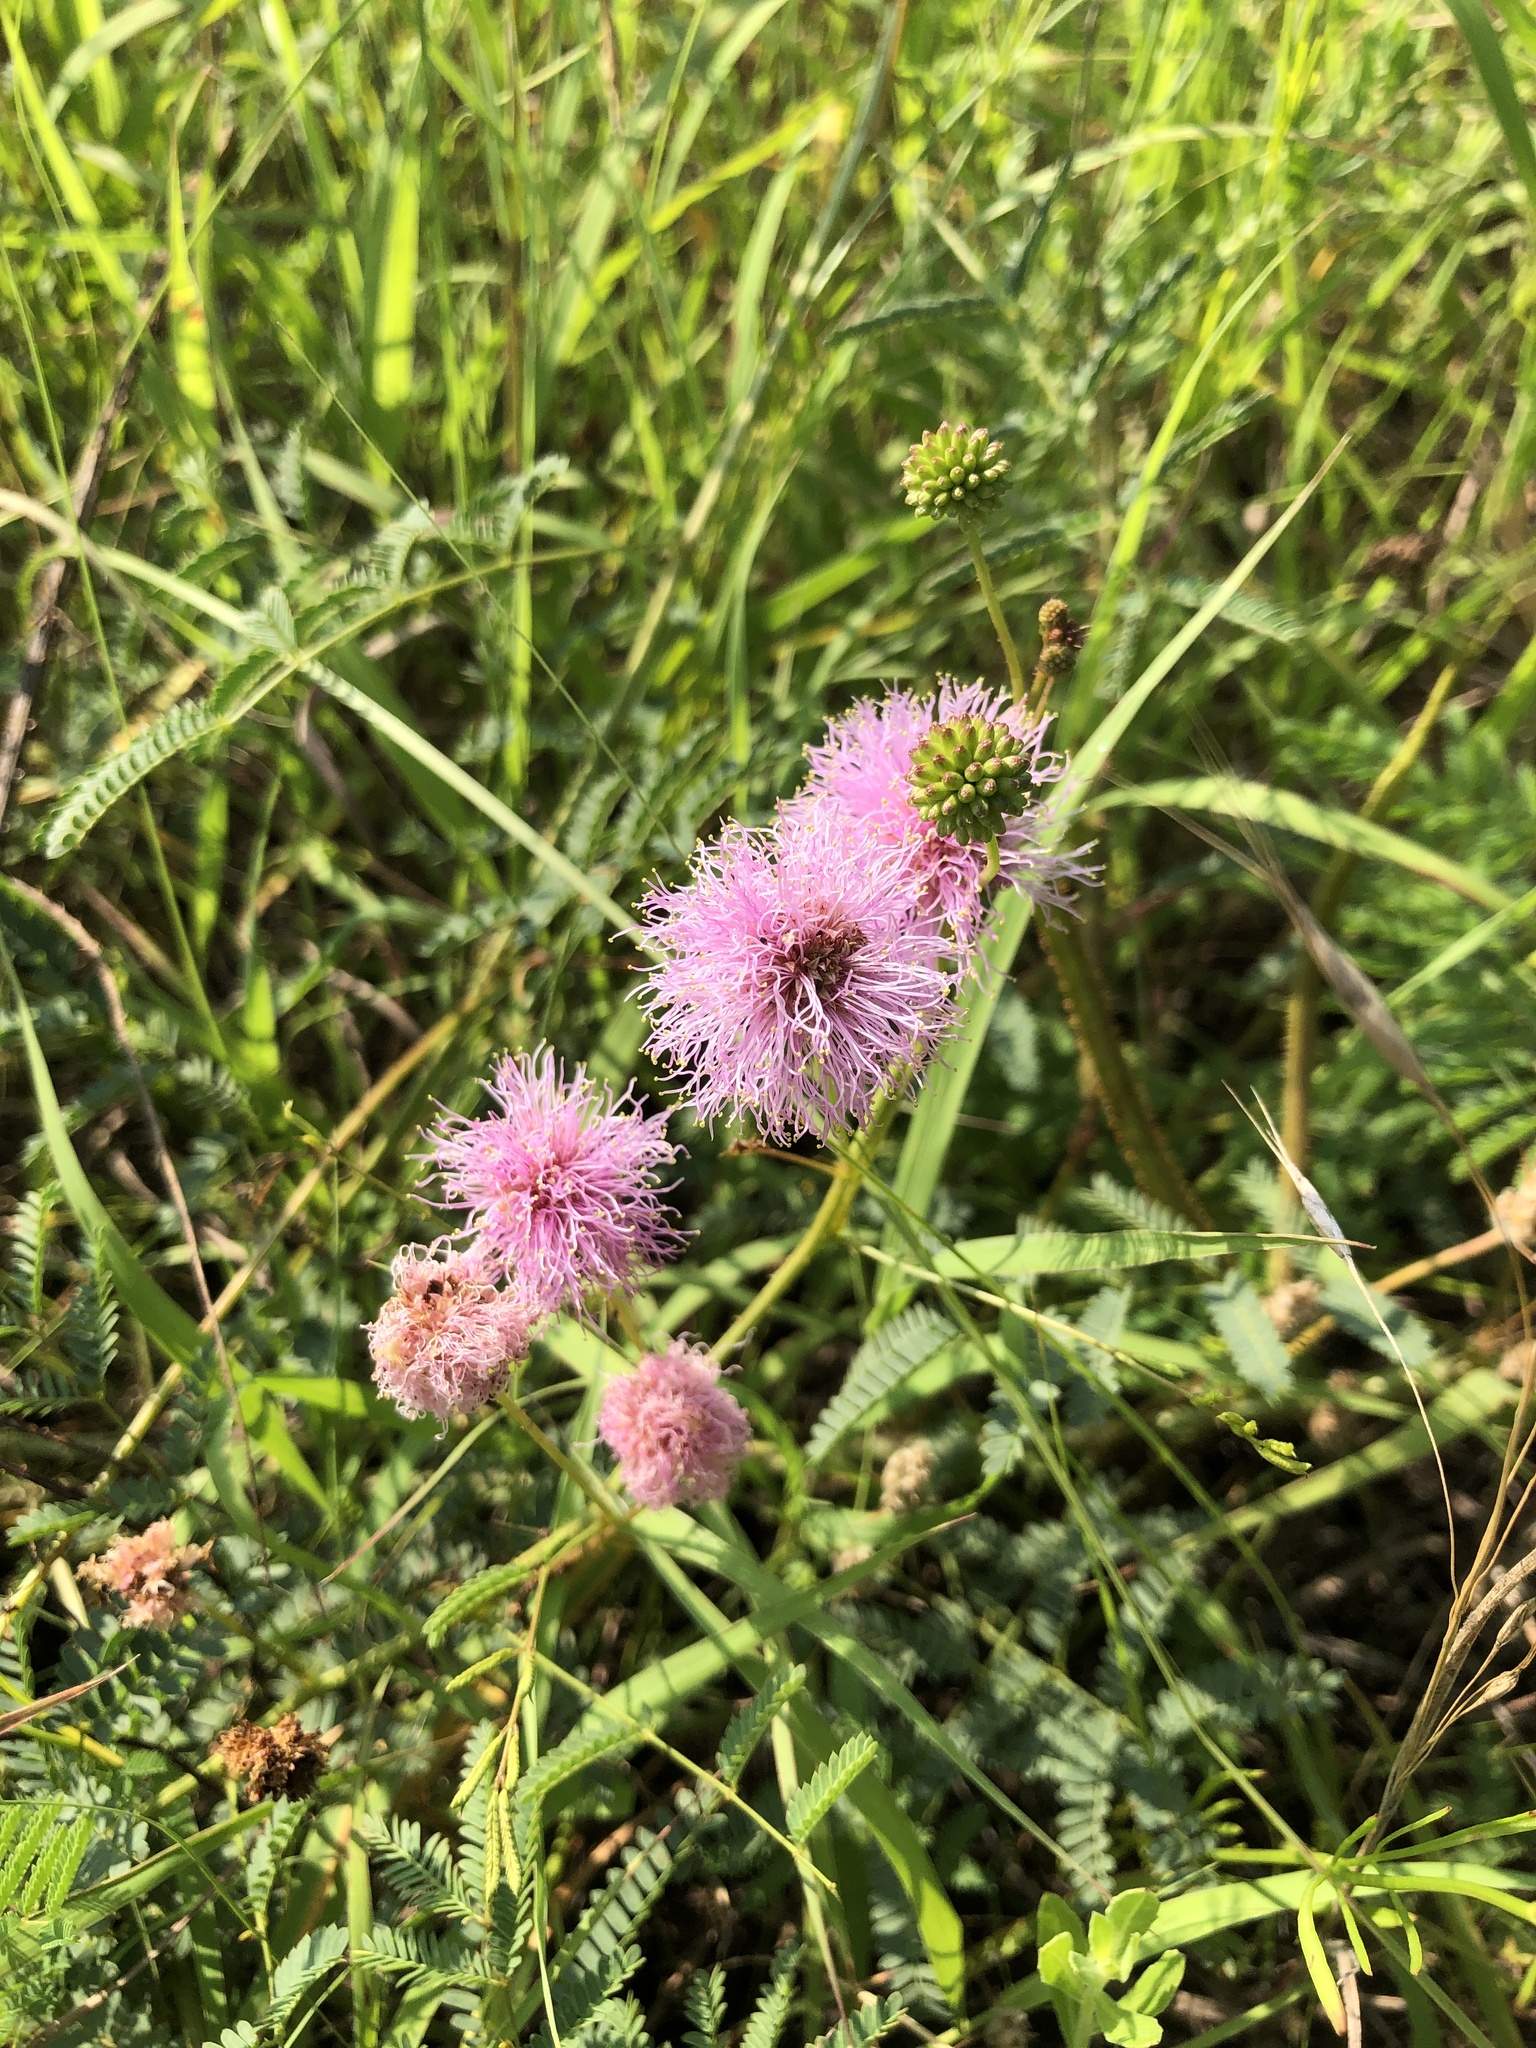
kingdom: Plantae
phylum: Tracheophyta
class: Magnoliopsida
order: Fabales
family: Fabaceae
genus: Mimosa
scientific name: Mimosa quadrivalvis
